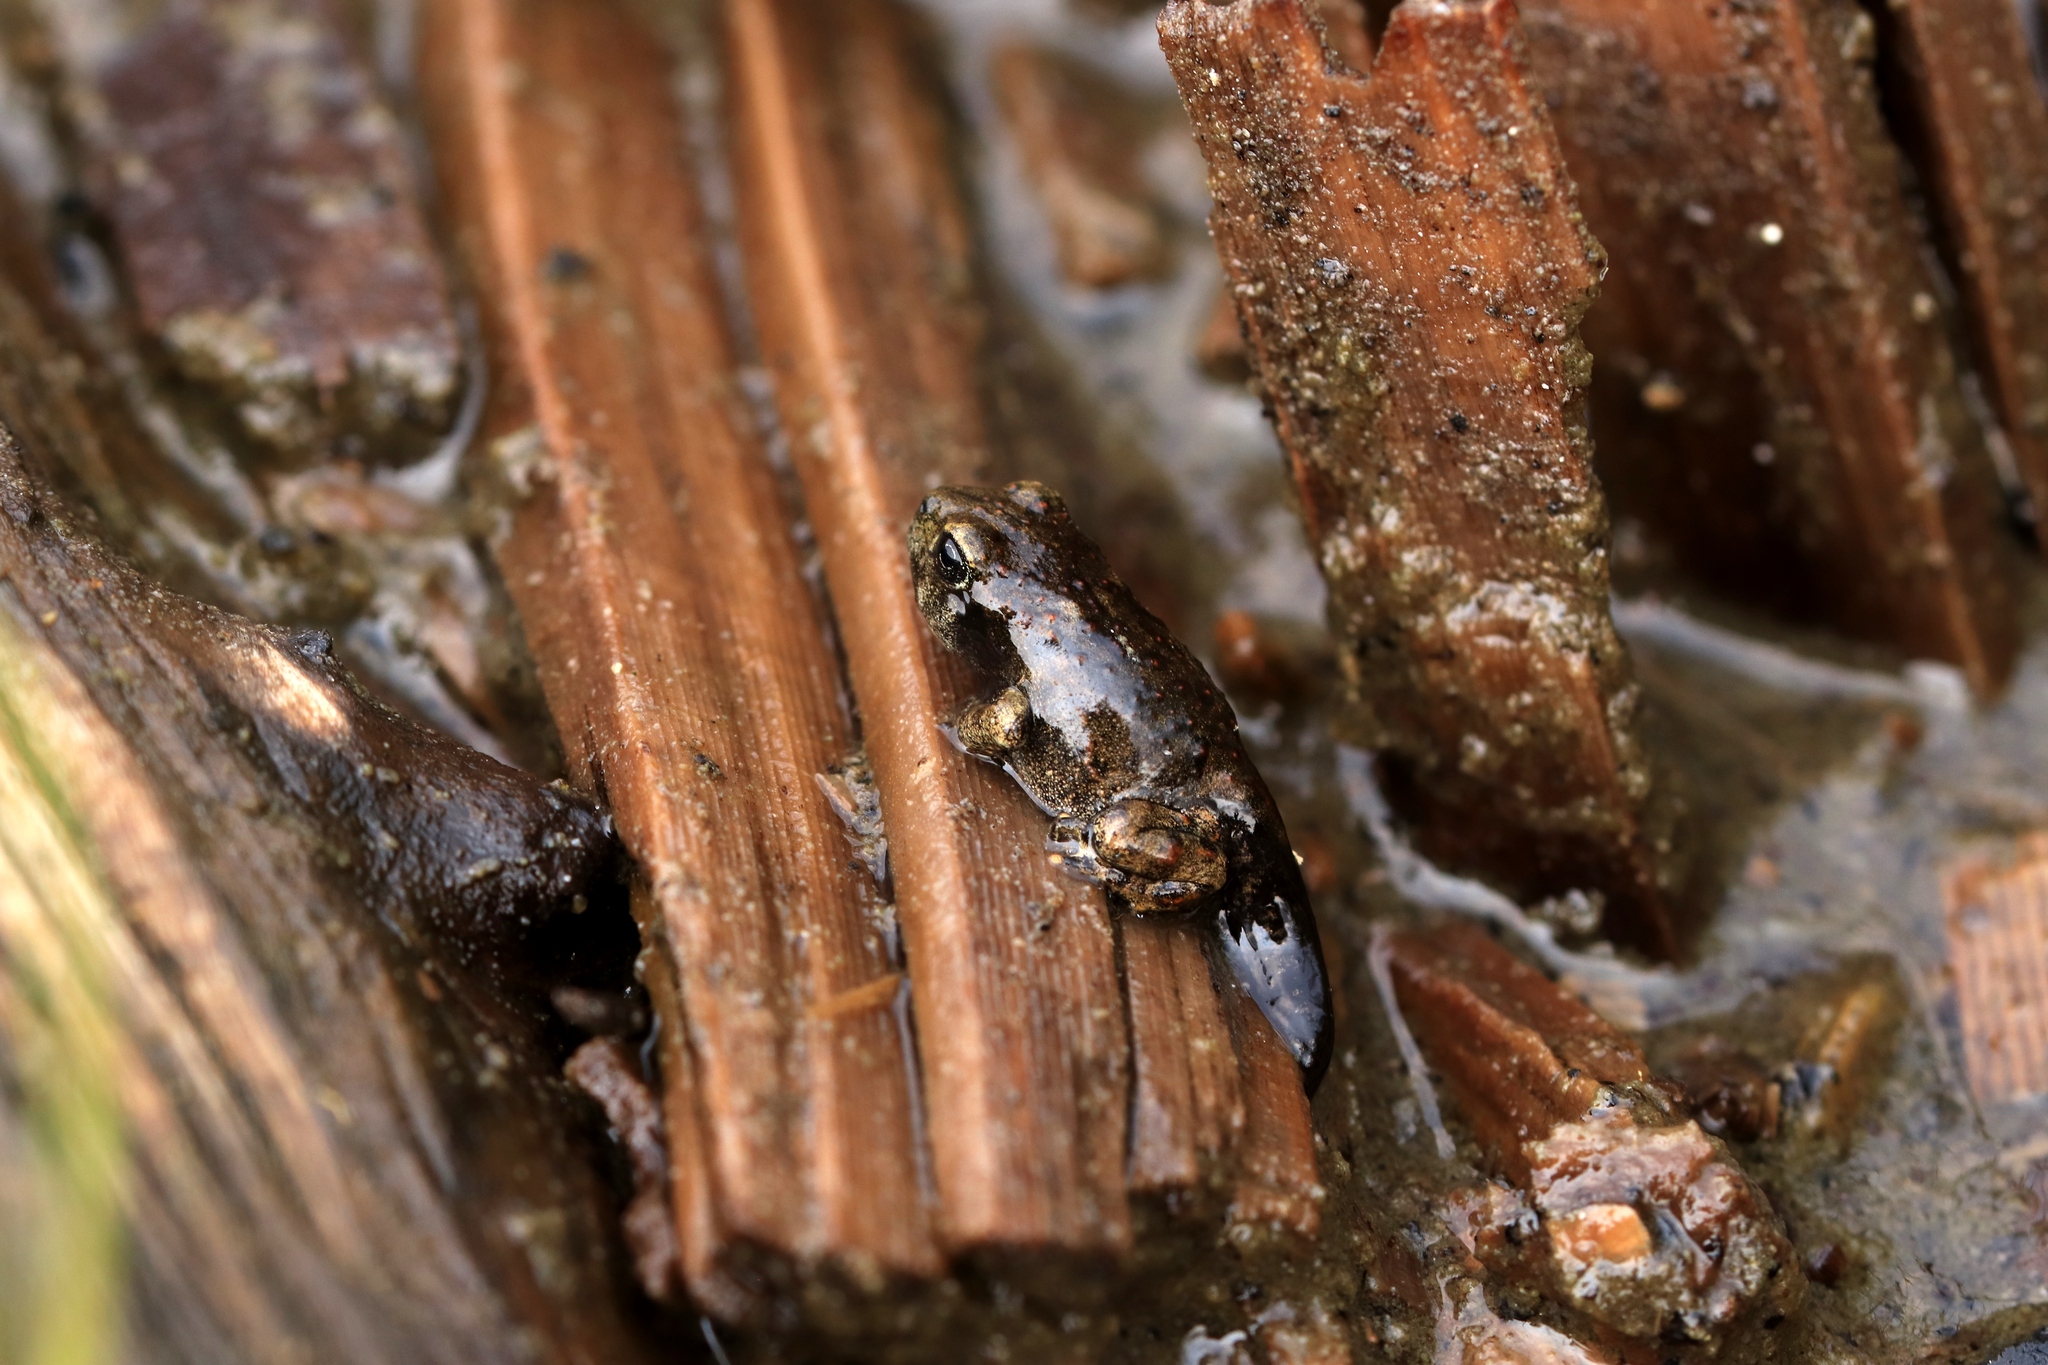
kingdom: Animalia
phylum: Chordata
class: Amphibia
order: Anura
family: Bufonidae
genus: Anaxyrus
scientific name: Anaxyrus boreas
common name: Western toad
